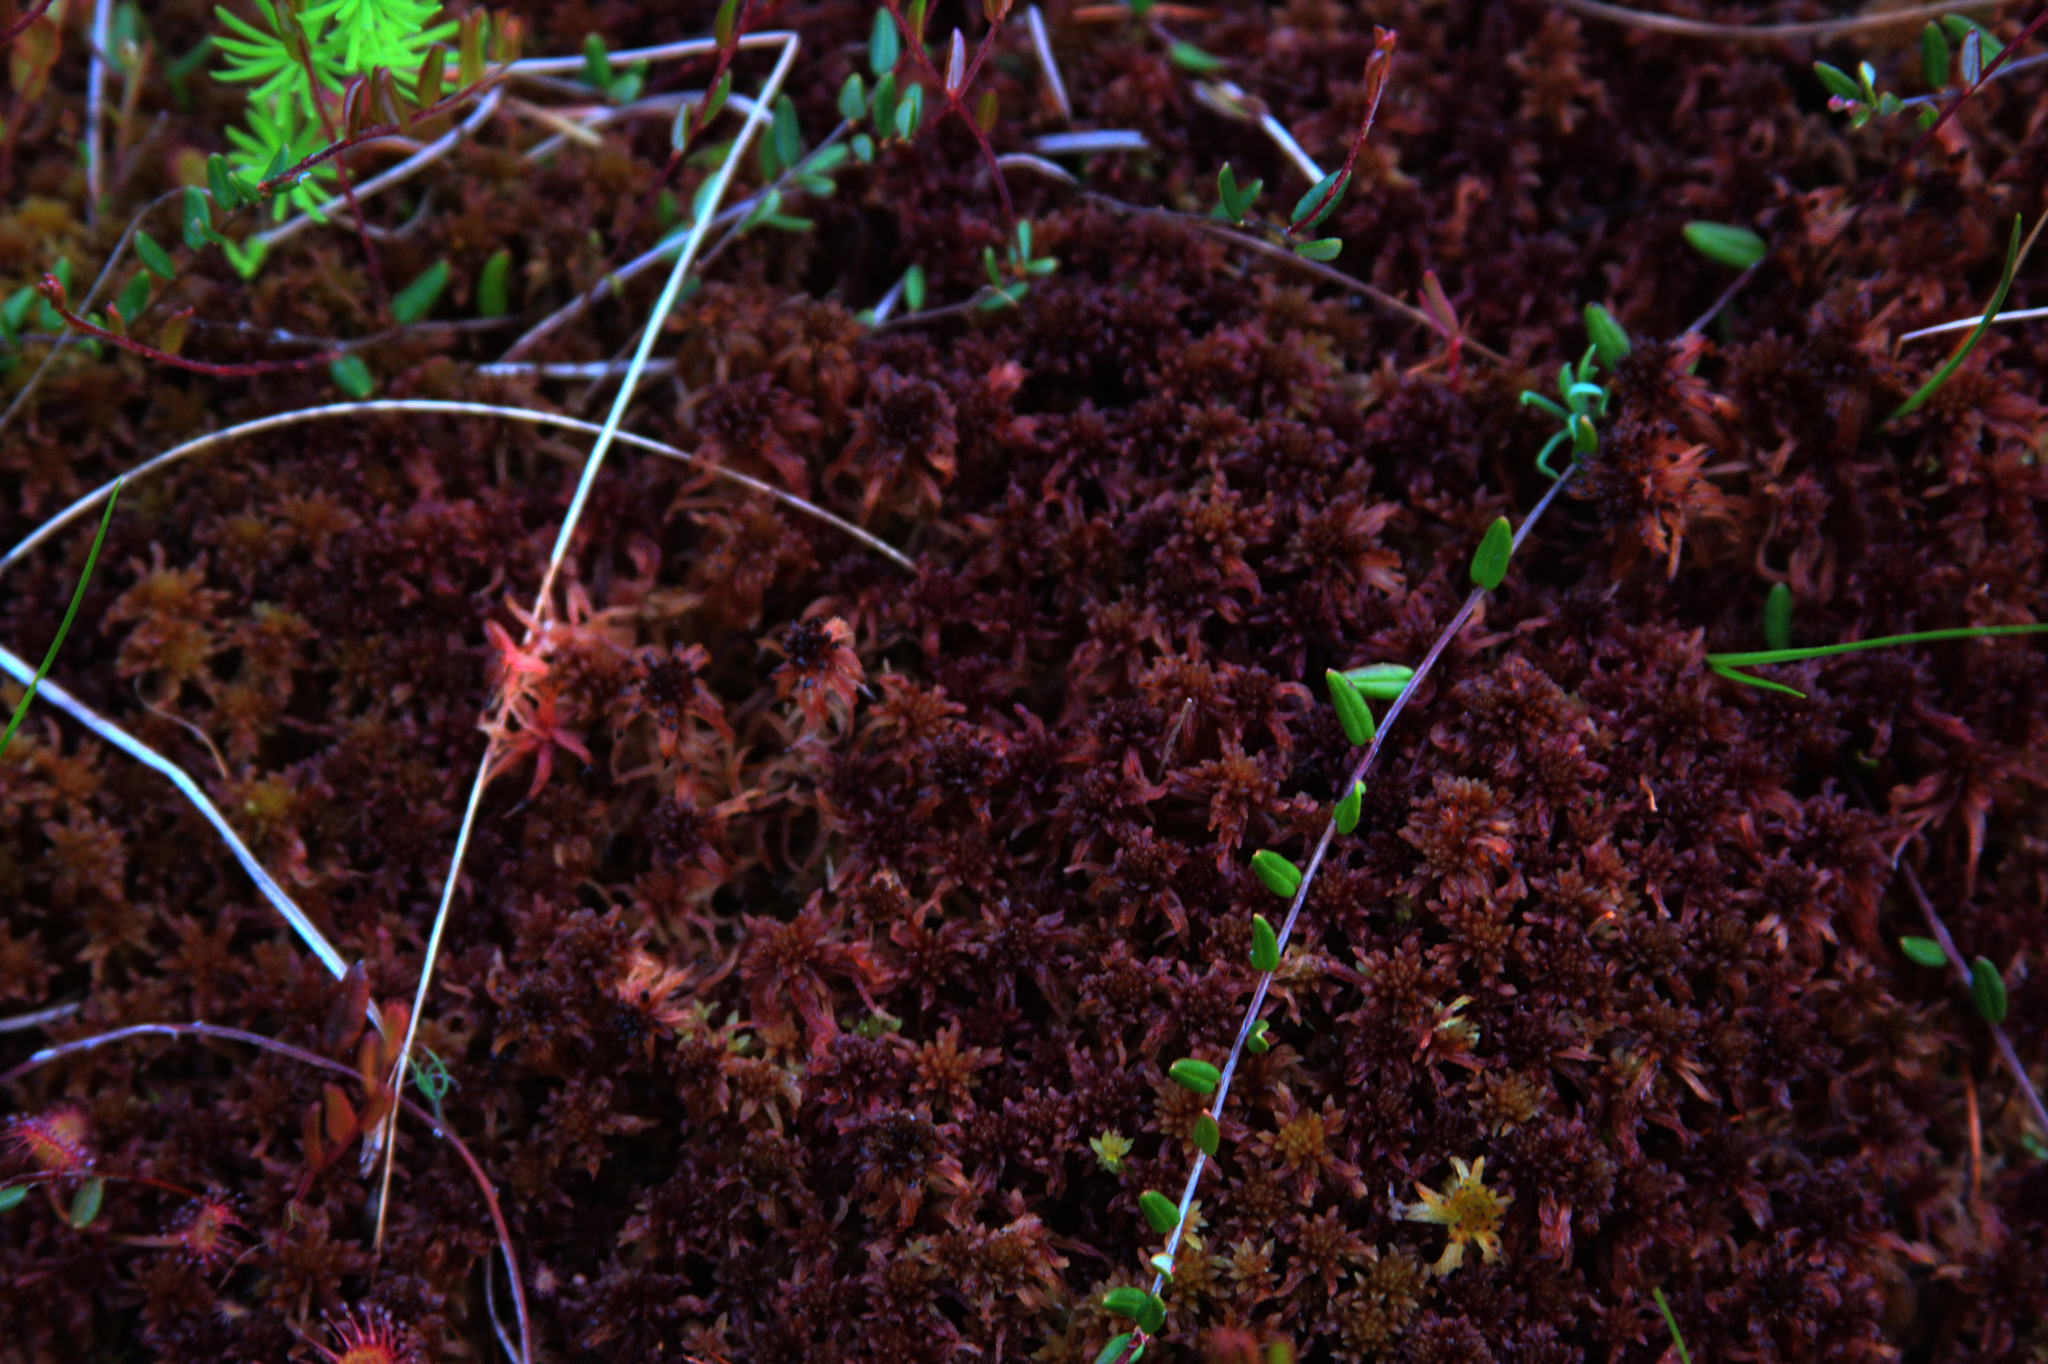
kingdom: Plantae
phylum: Tracheophyta
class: Magnoliopsida
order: Ericales
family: Ericaceae
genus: Vaccinium
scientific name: Vaccinium oxycoccos
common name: Cranberry
